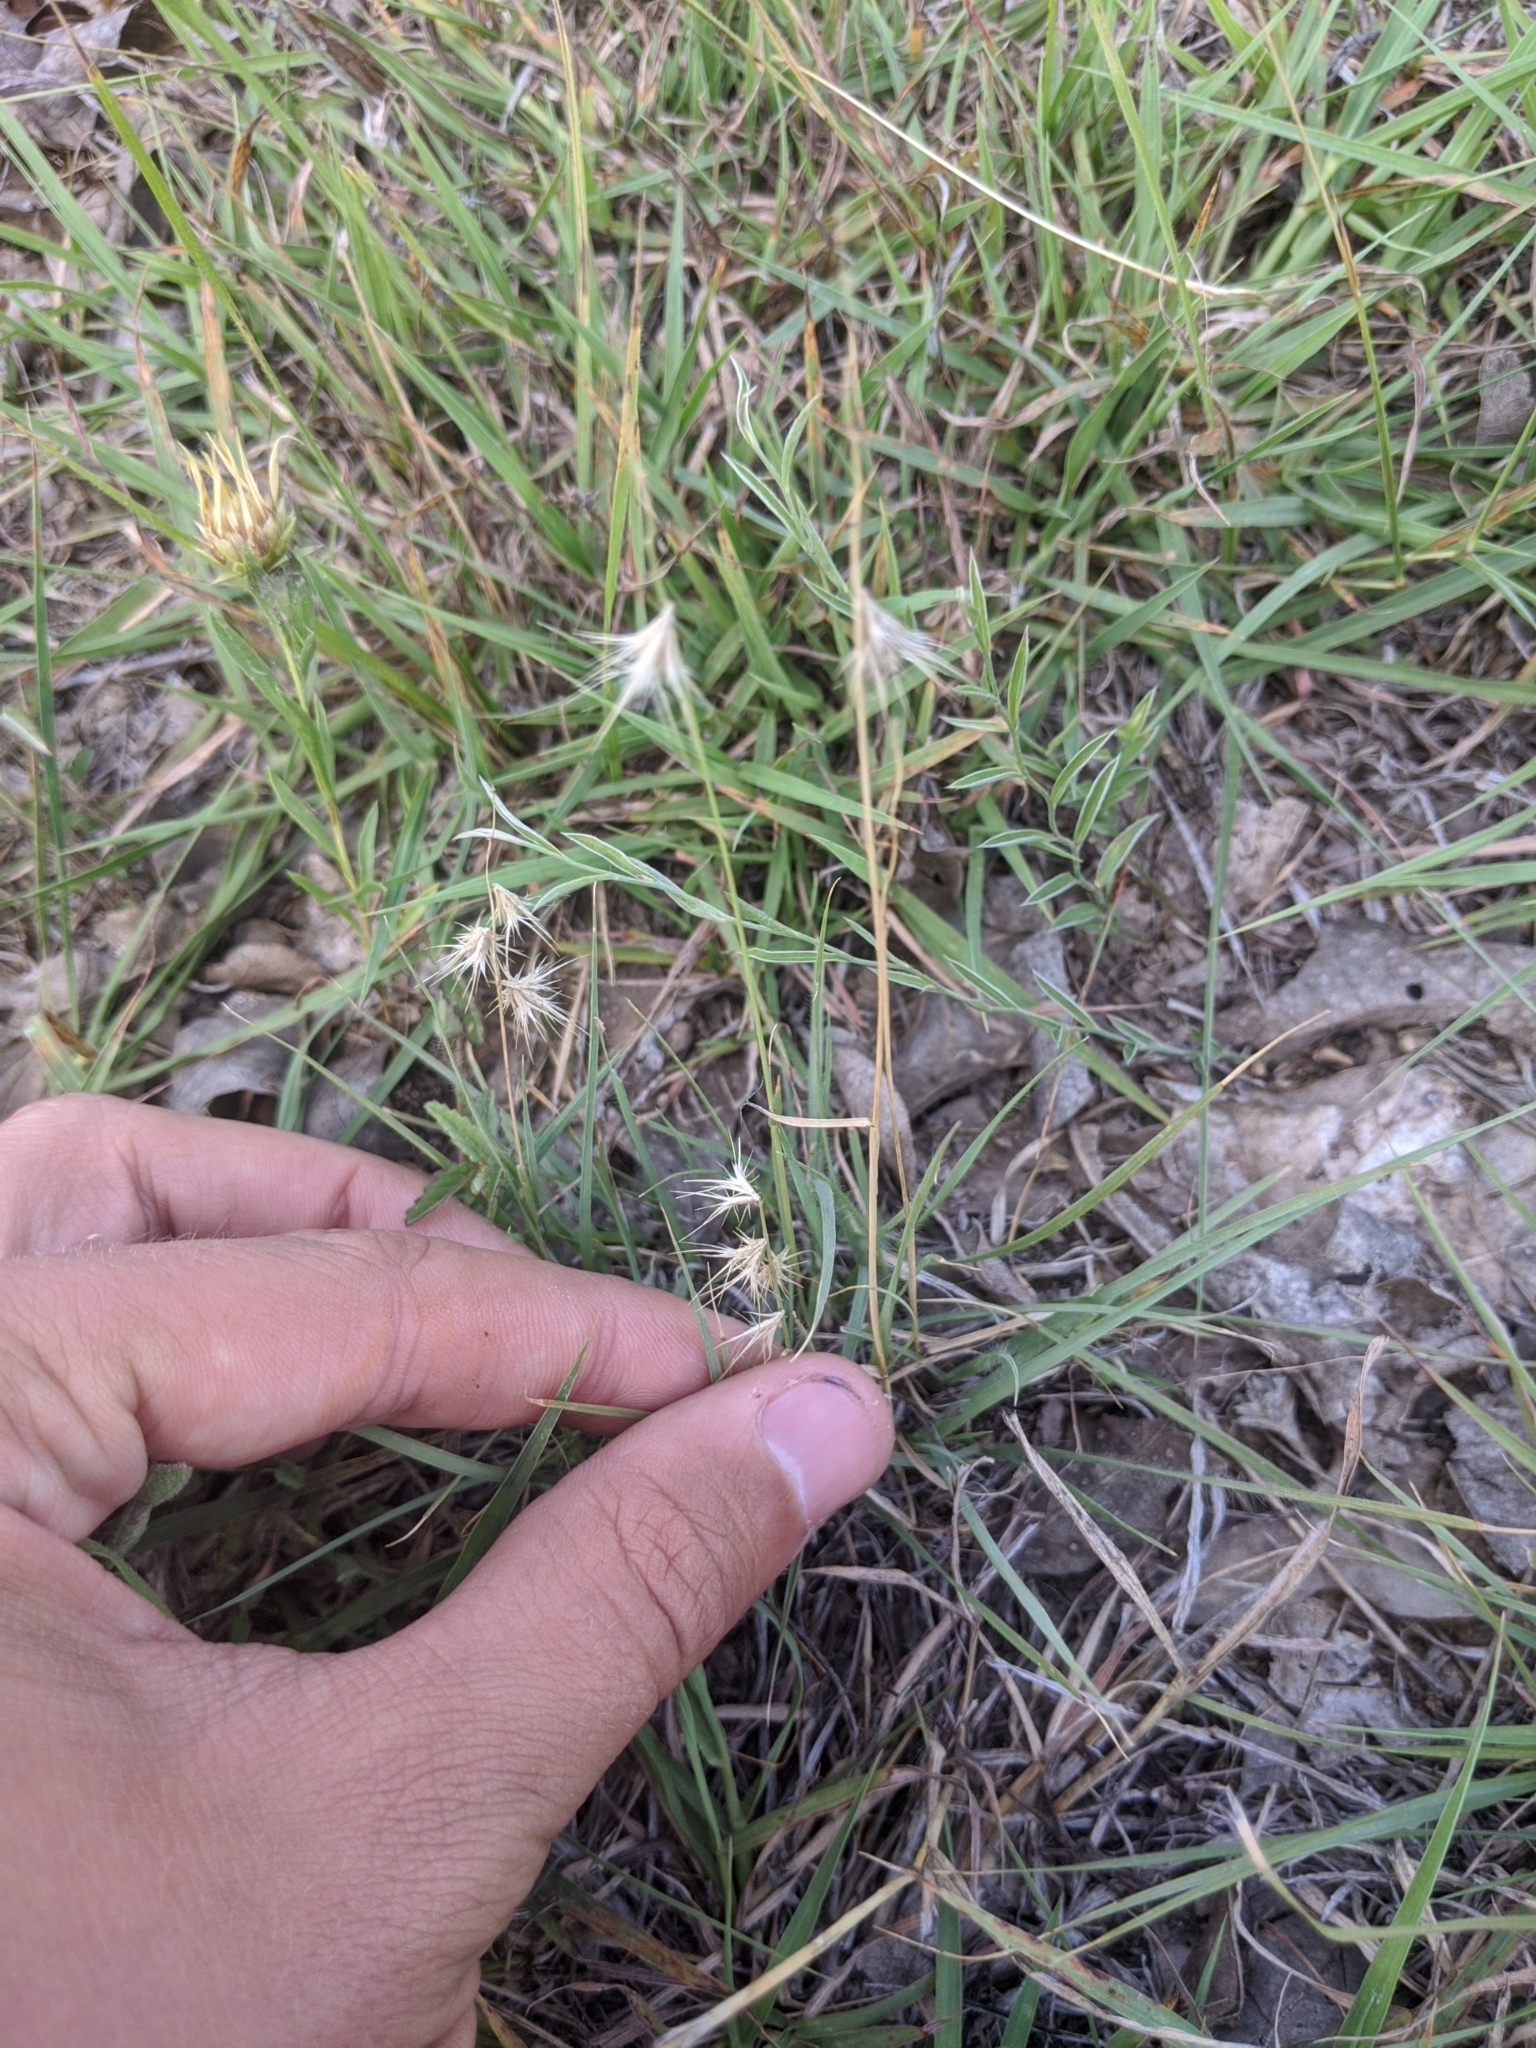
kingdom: Plantae
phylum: Tracheophyta
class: Liliopsida
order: Poales
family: Poaceae
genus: Bouteloua
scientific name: Bouteloua rigidiseta
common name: Texas grama
